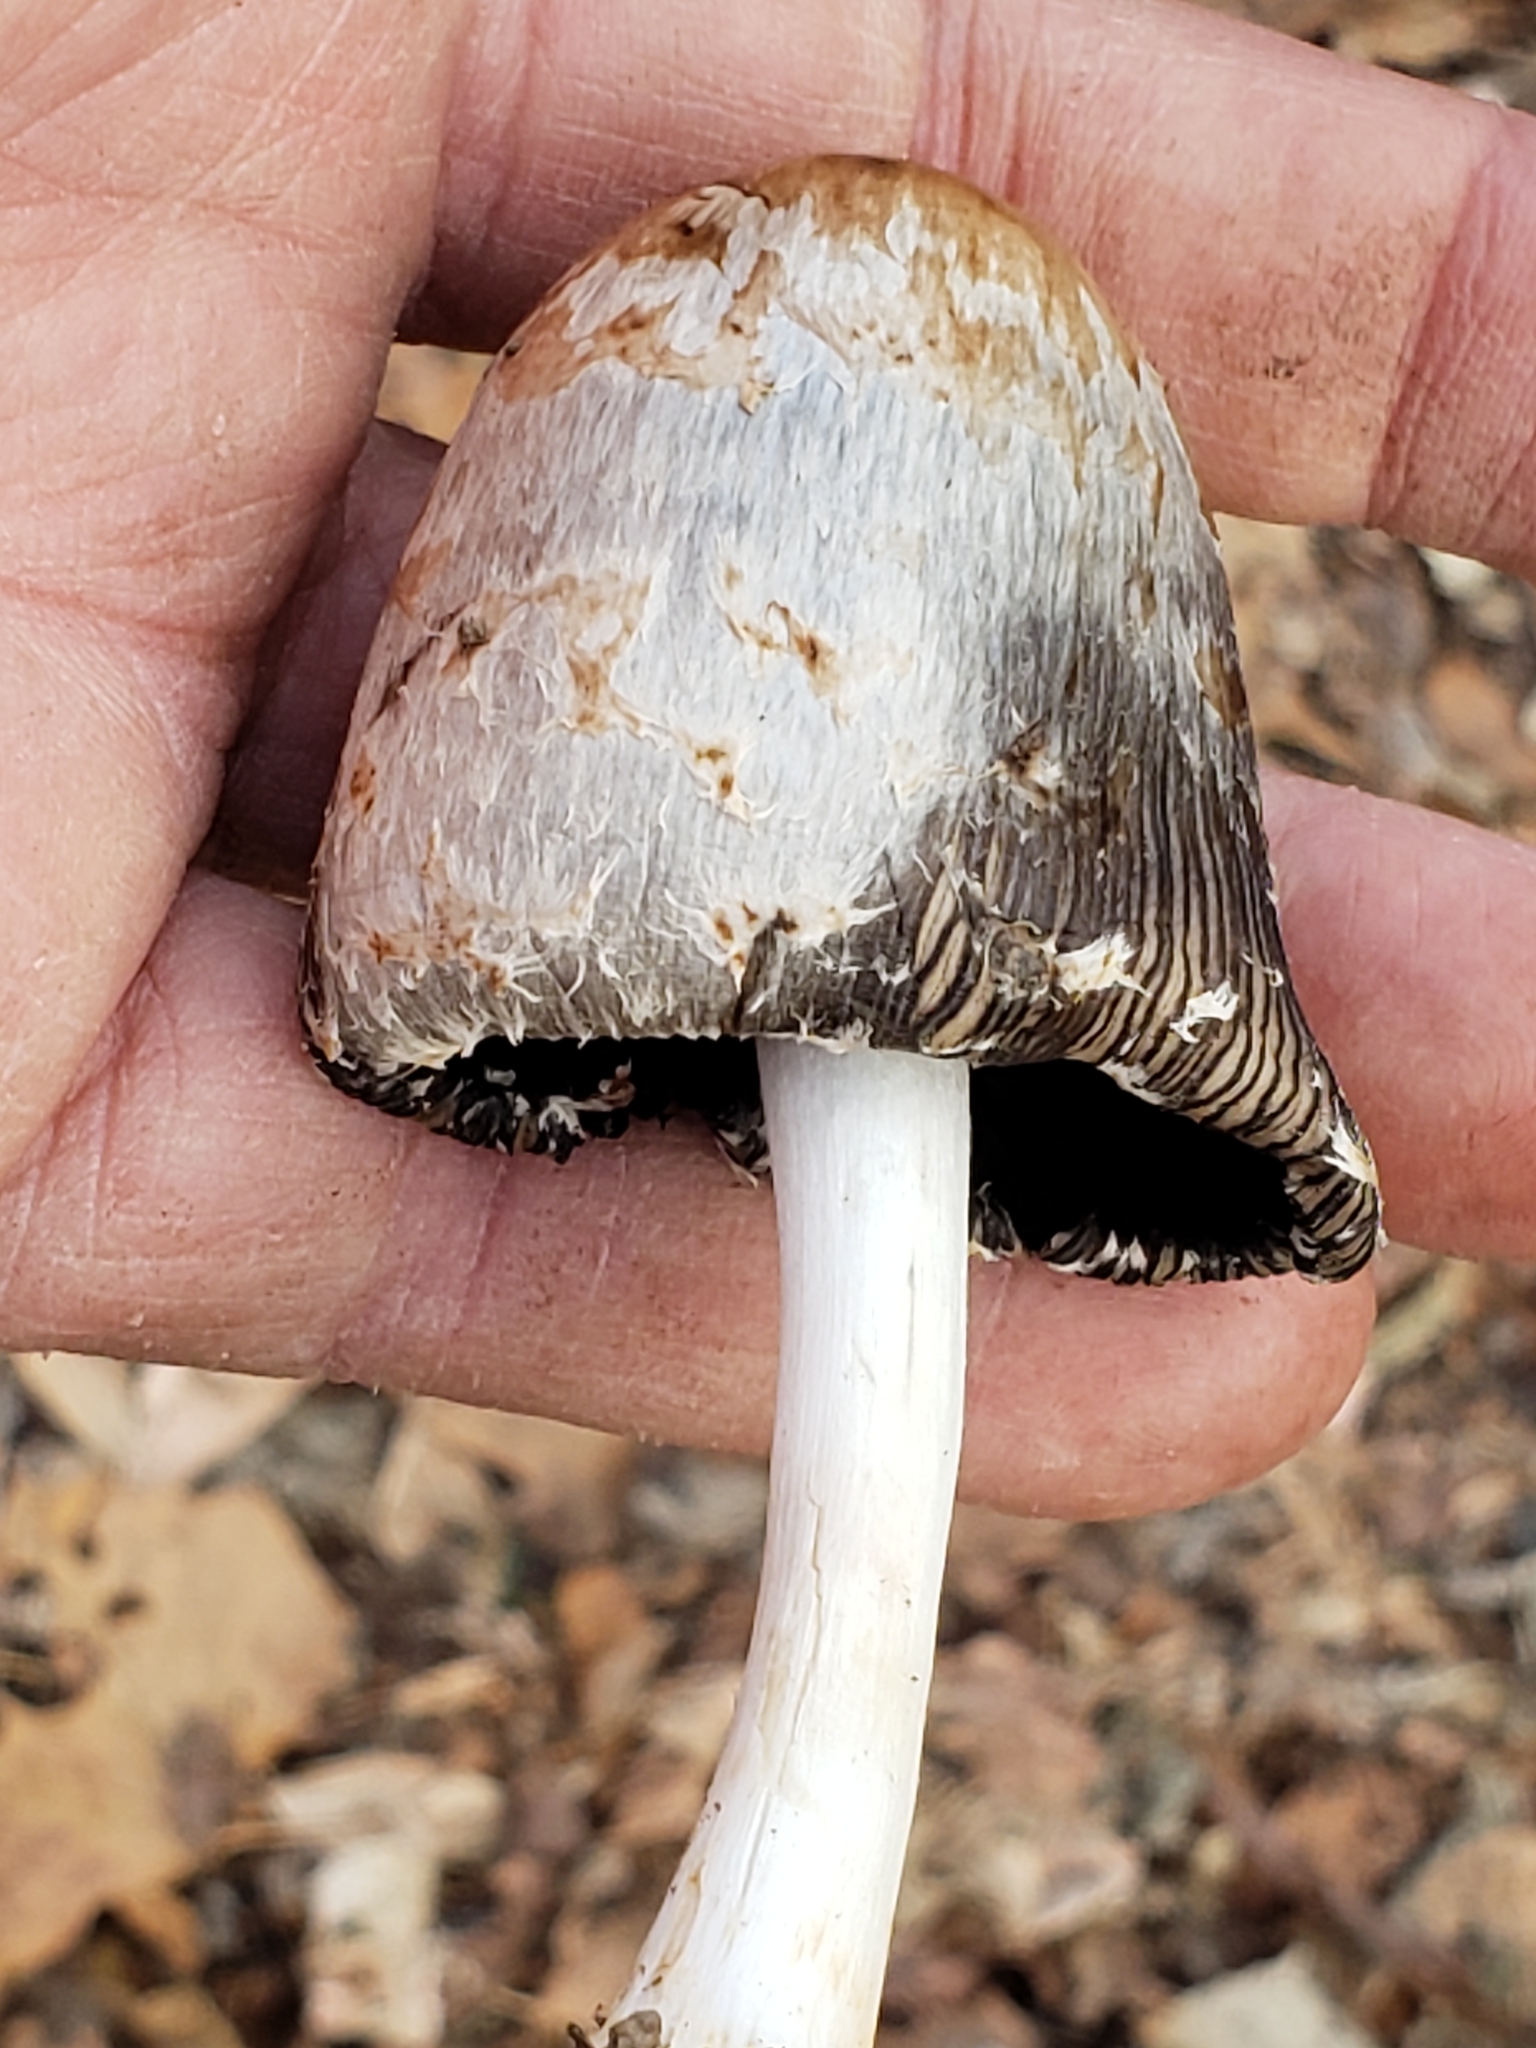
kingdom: Fungi
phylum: Basidiomycota
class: Agaricomycetes
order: Agaricales
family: Agaricaceae
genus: Coprinus
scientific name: Coprinus comatus
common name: Lawyer's wig
